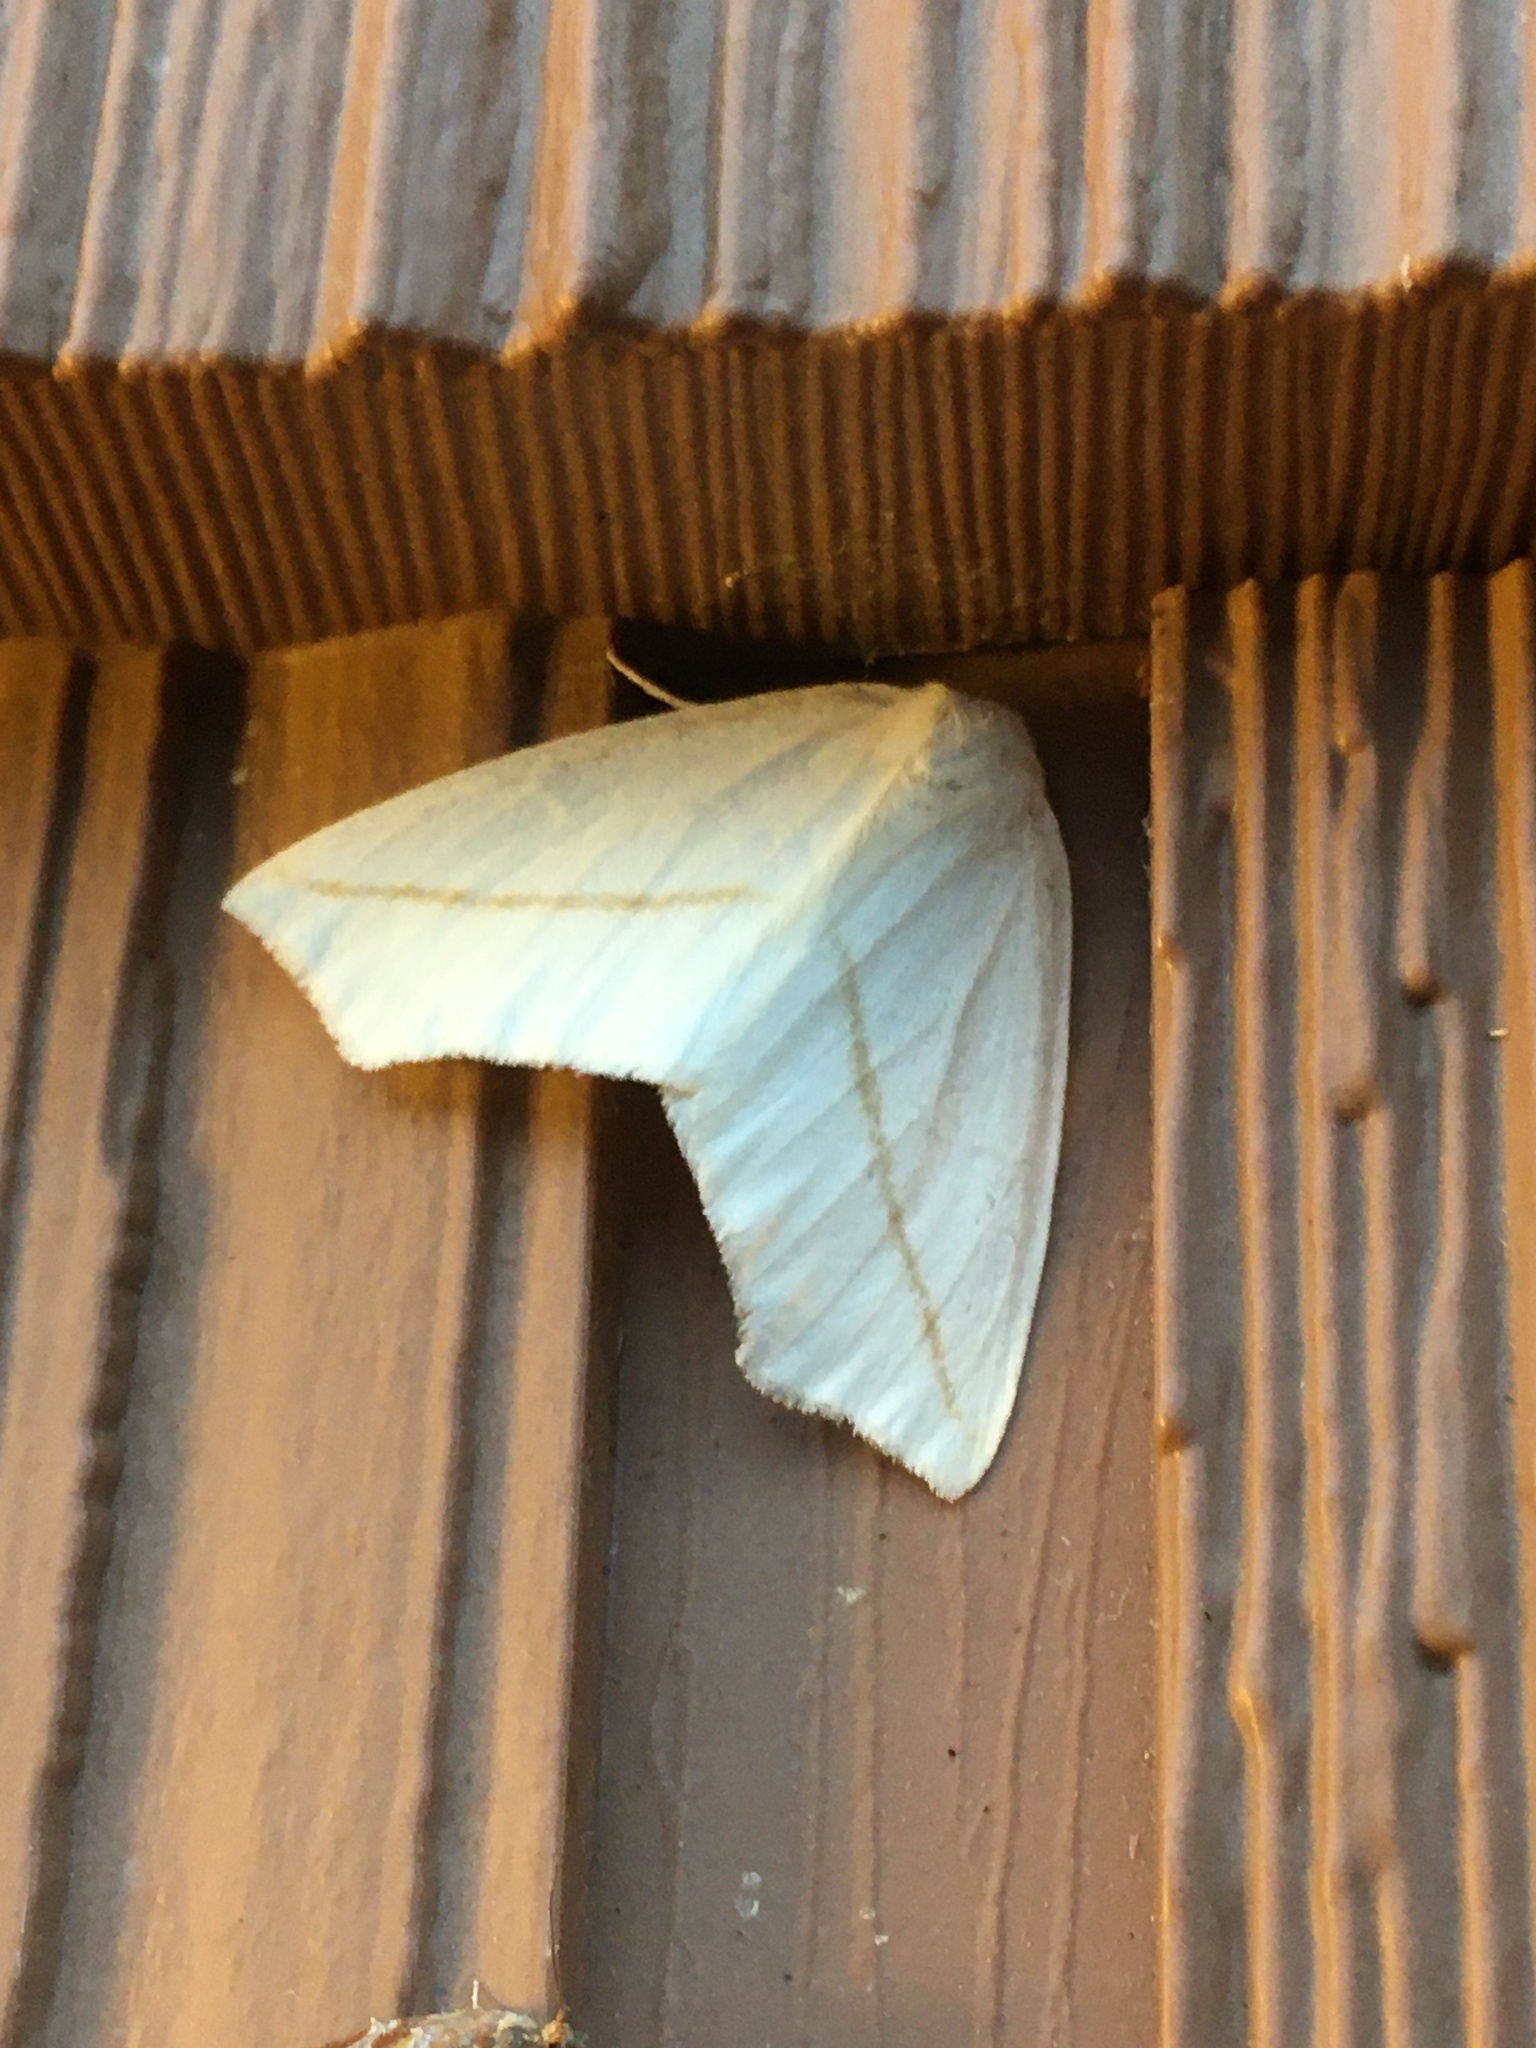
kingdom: Animalia
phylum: Arthropoda
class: Insecta
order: Lepidoptera
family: Geometridae
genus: Tetracis
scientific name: Tetracis cachexiata
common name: White slant-line
